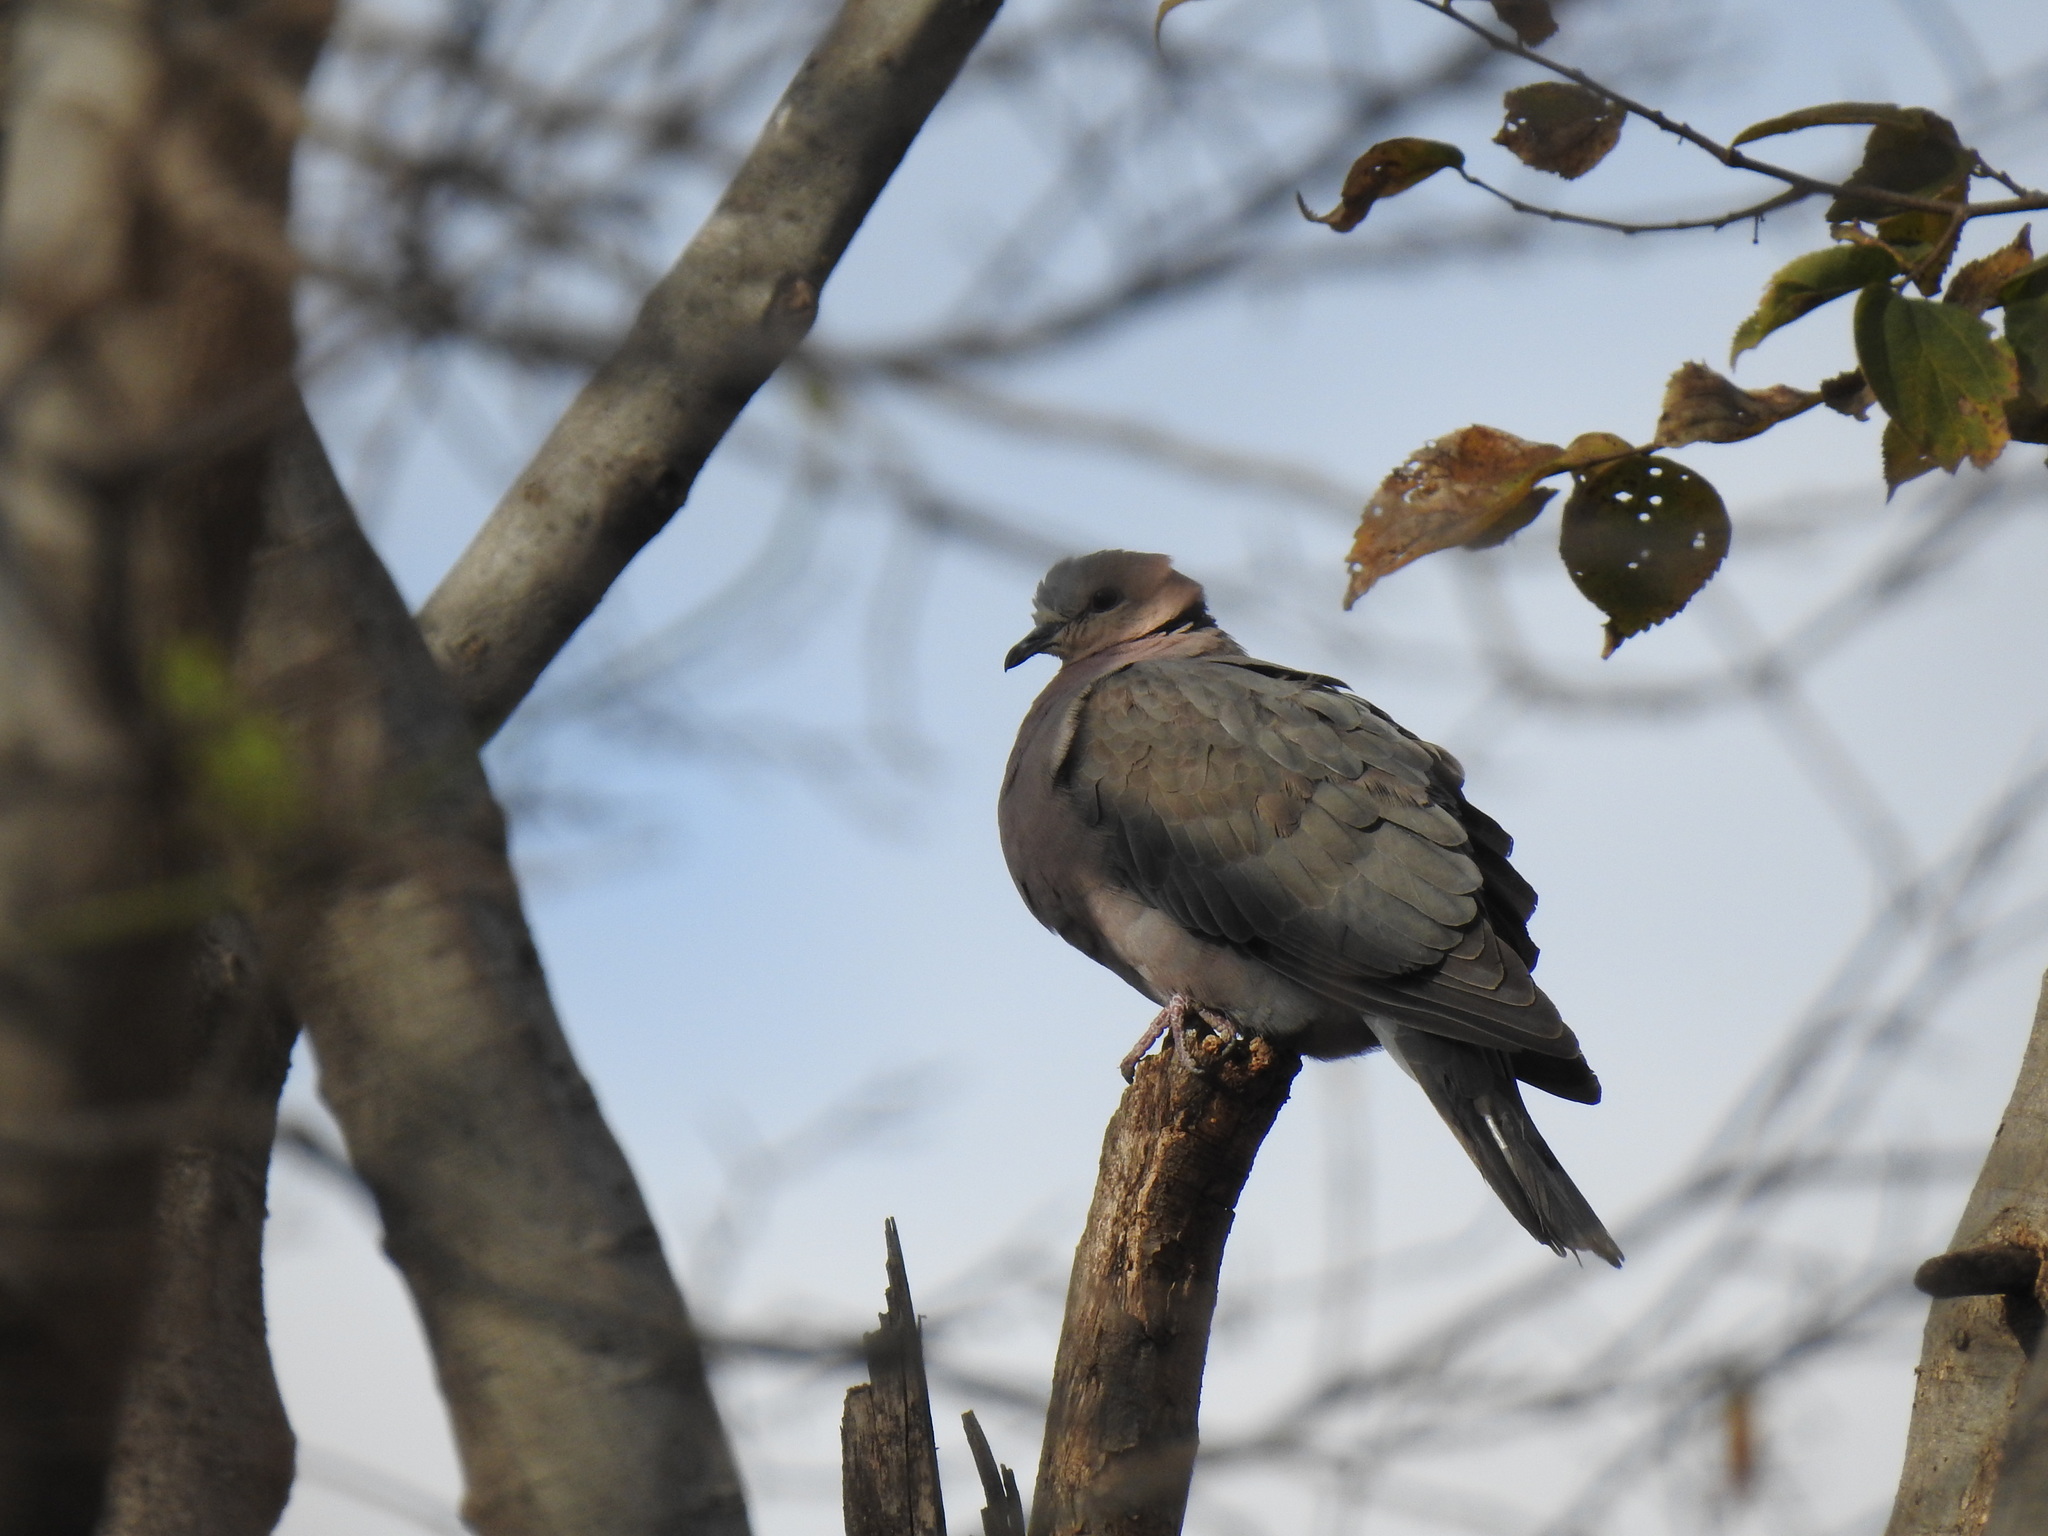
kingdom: Animalia
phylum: Chordata
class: Aves
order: Columbiformes
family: Columbidae
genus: Streptopelia
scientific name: Streptopelia semitorquata
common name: Red-eyed dove
